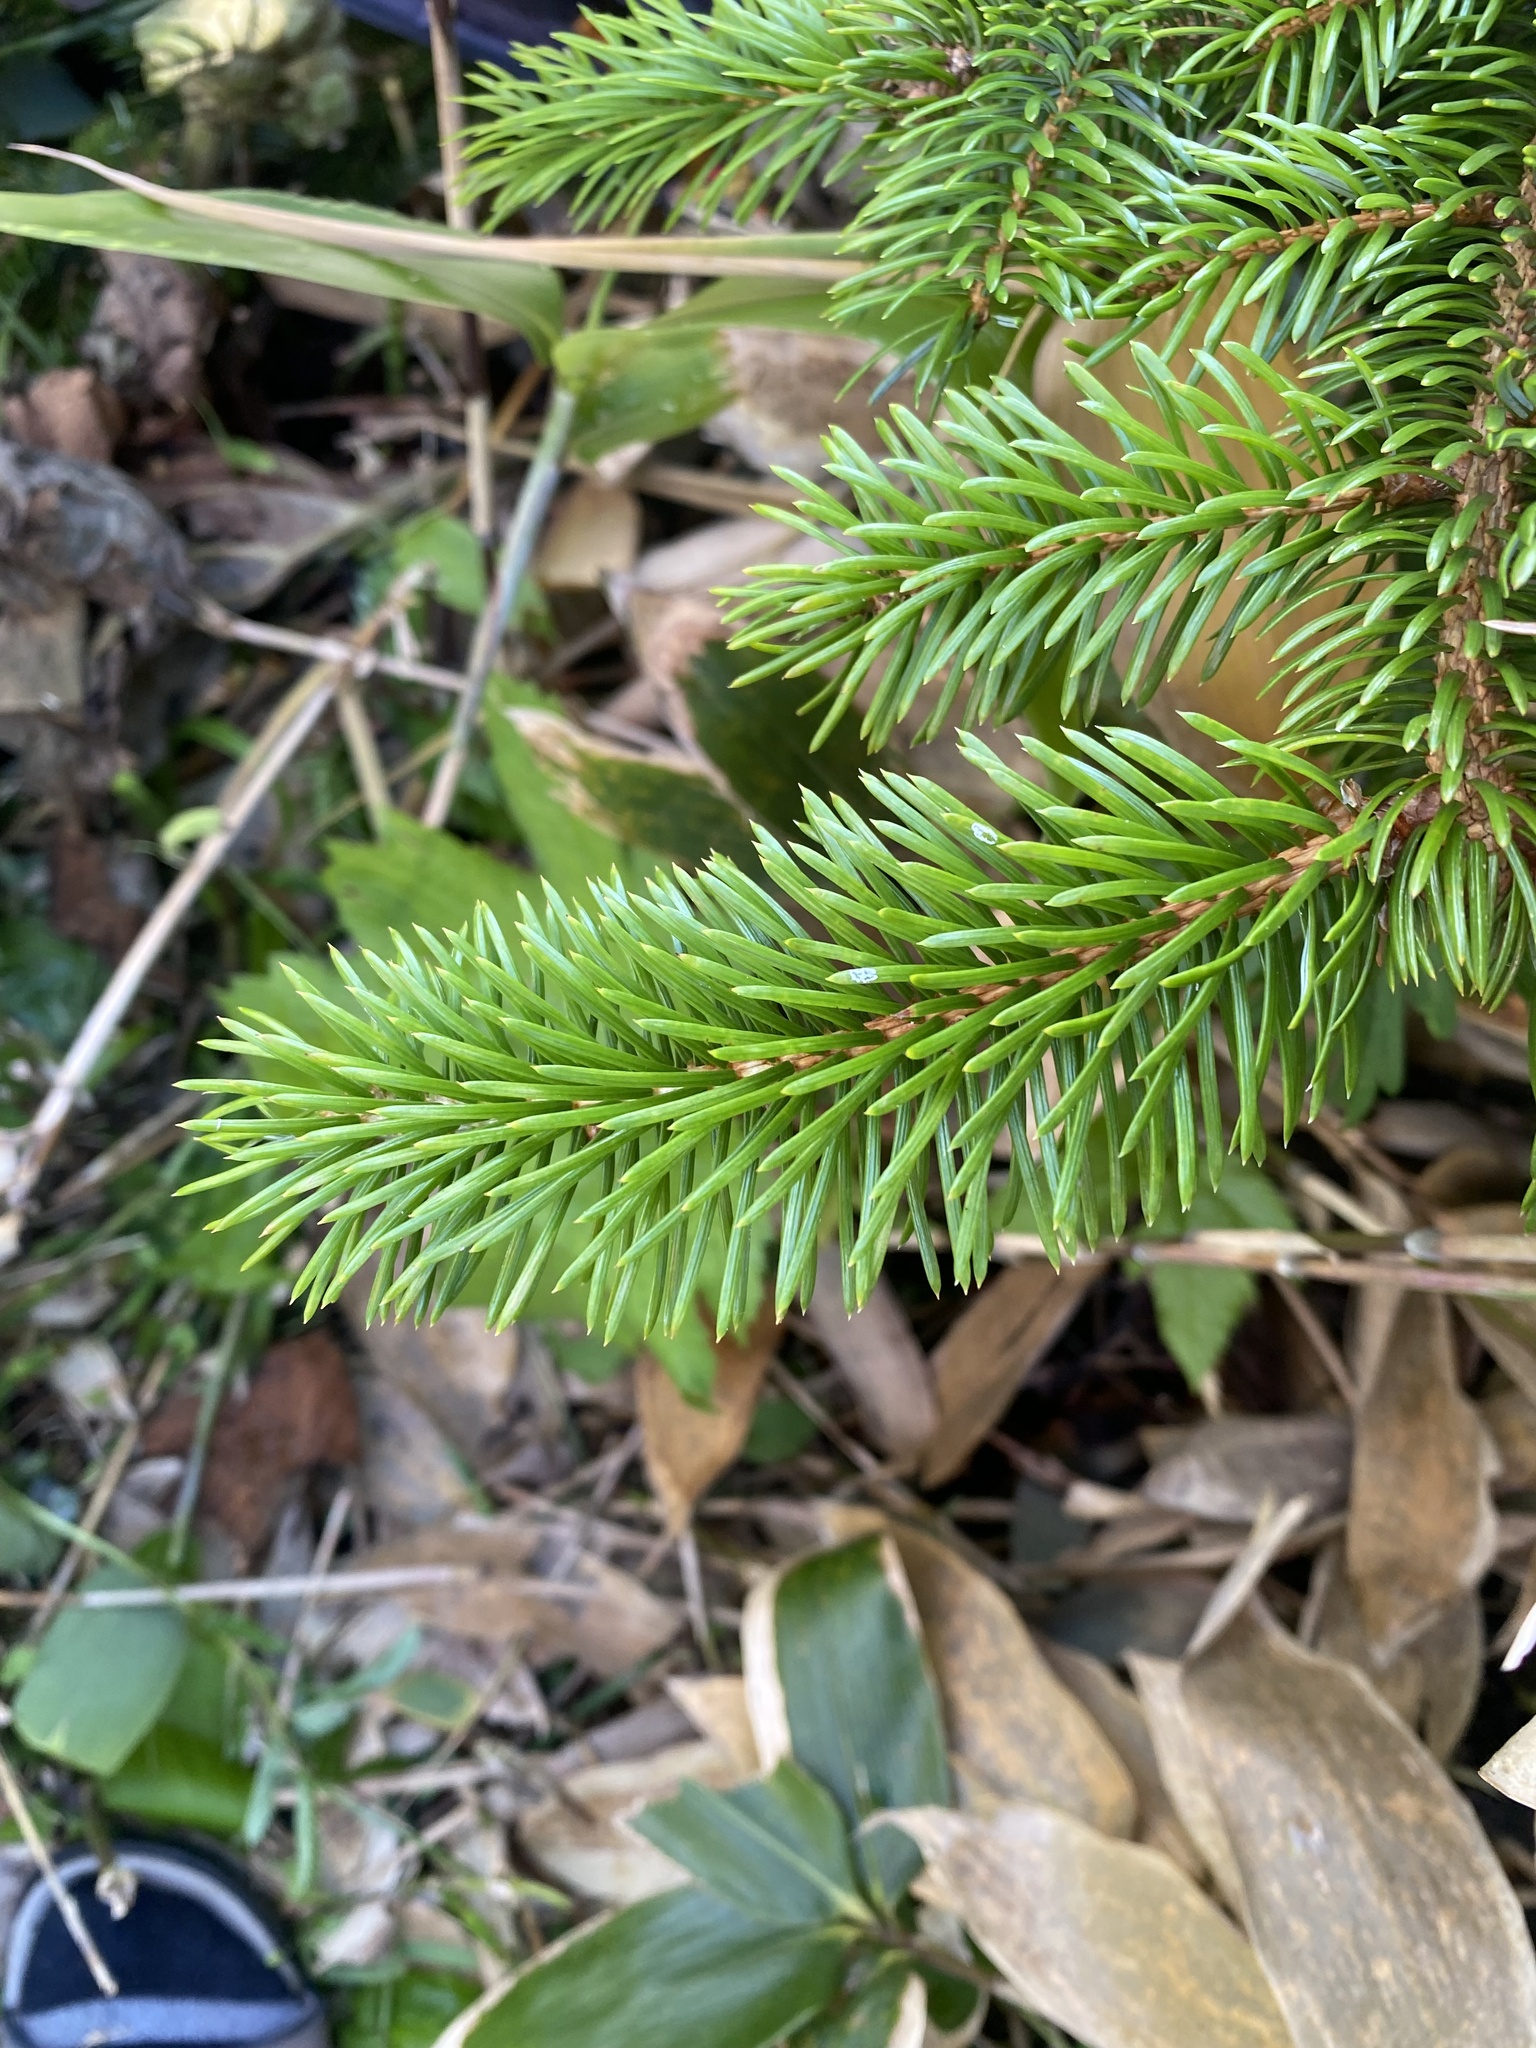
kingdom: Plantae
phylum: Tracheophyta
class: Pinopsida
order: Pinales
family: Pinaceae
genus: Picea
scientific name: Picea jezoensis
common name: Yeddo spruce
